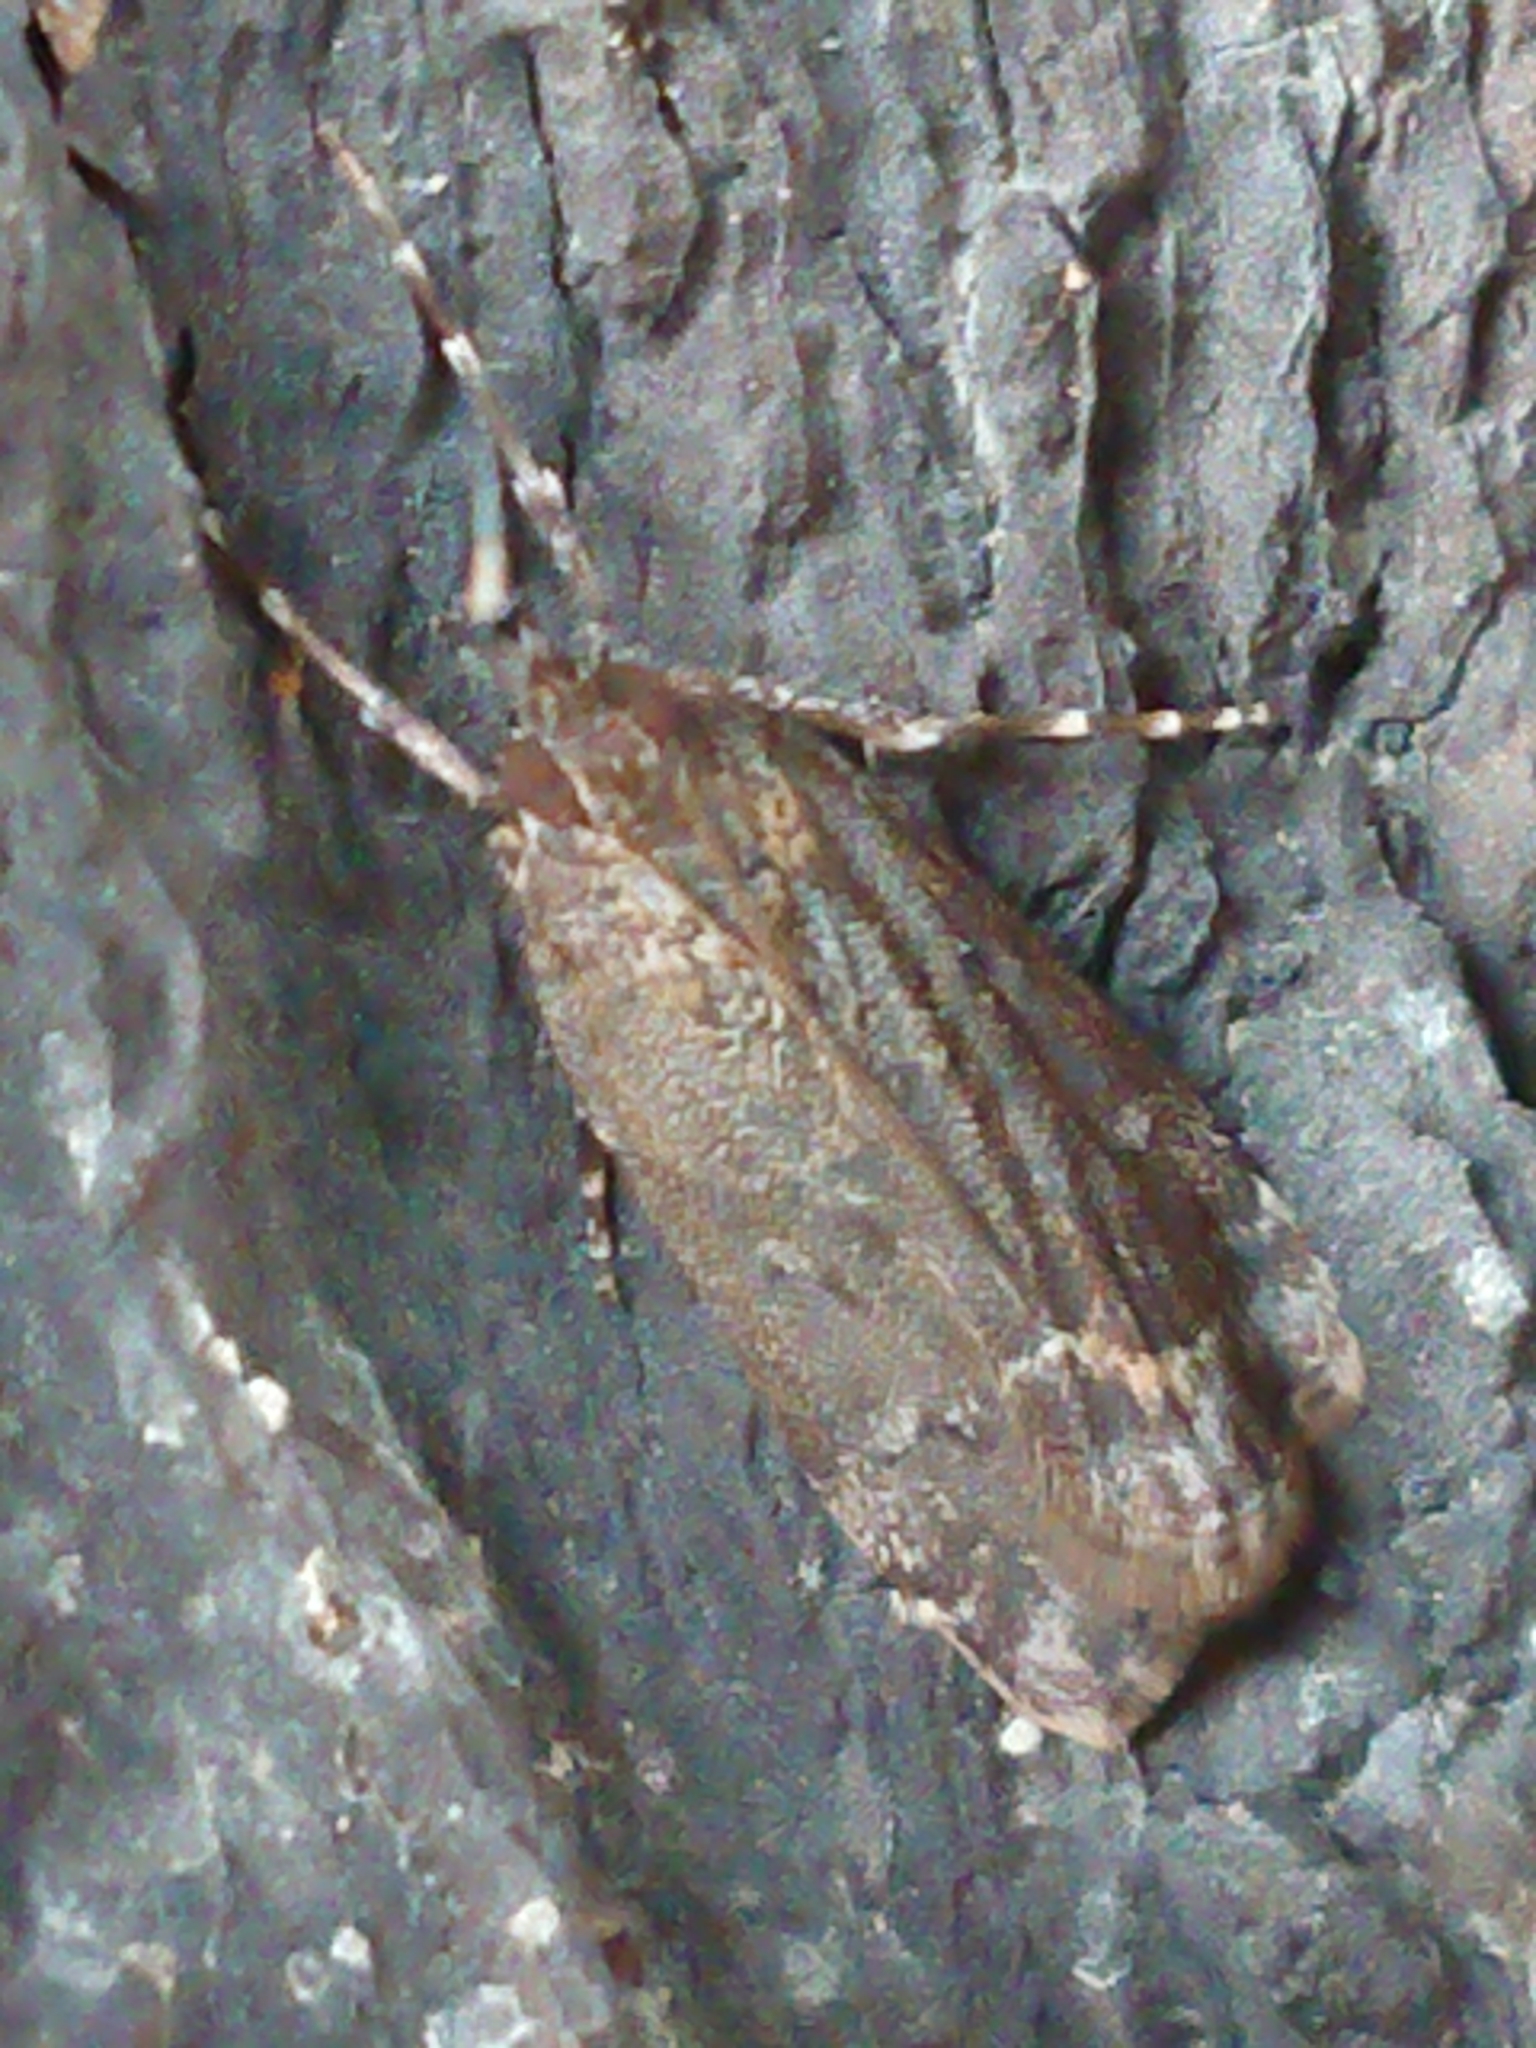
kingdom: Animalia
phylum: Arthropoda
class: Insecta
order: Lepidoptera
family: Crambidae
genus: Eudonia
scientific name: Eudonia submarginalis
